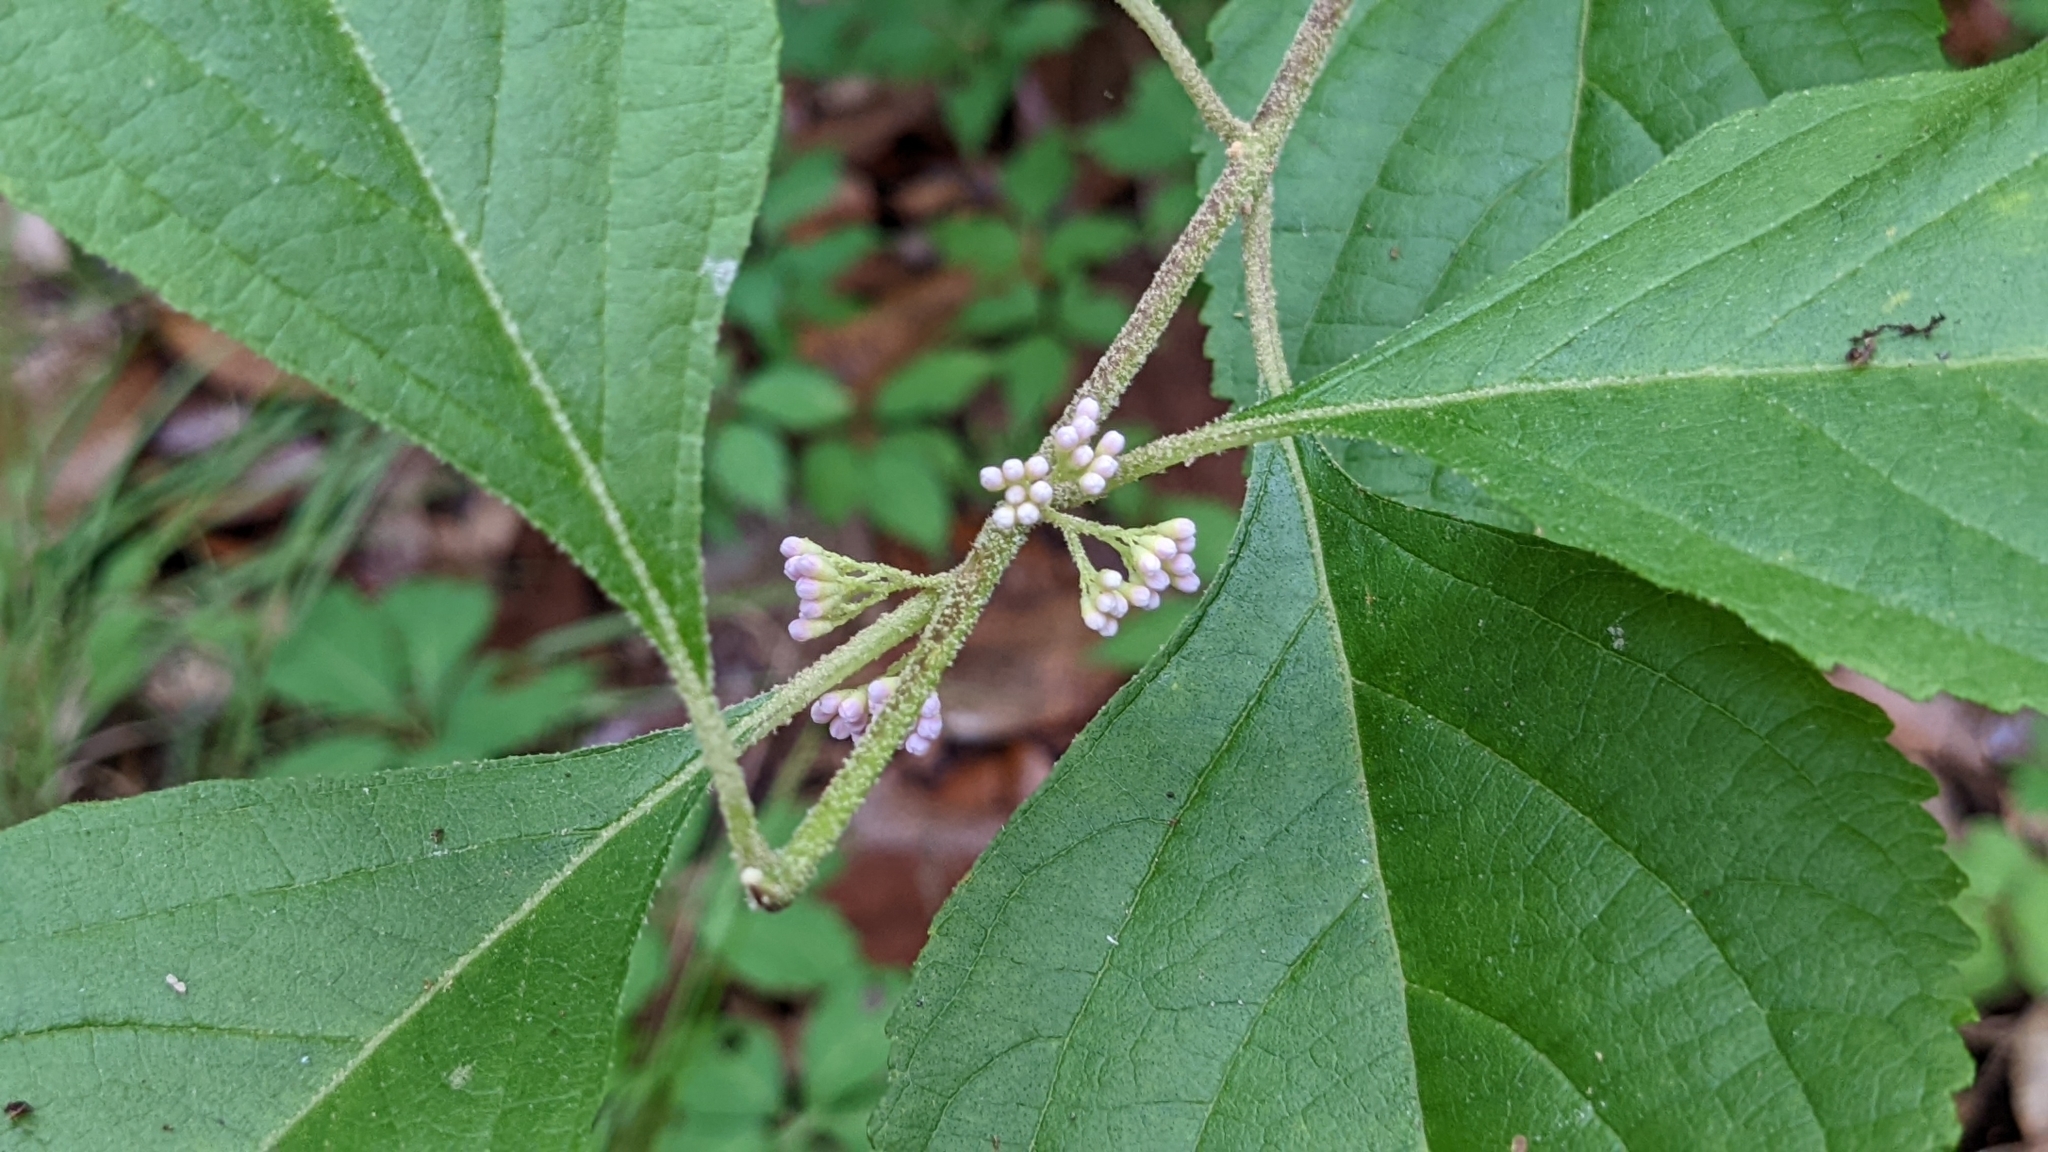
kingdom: Plantae
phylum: Tracheophyta
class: Magnoliopsida
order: Lamiales
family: Lamiaceae
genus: Callicarpa
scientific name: Callicarpa americana
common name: American beautyberry
